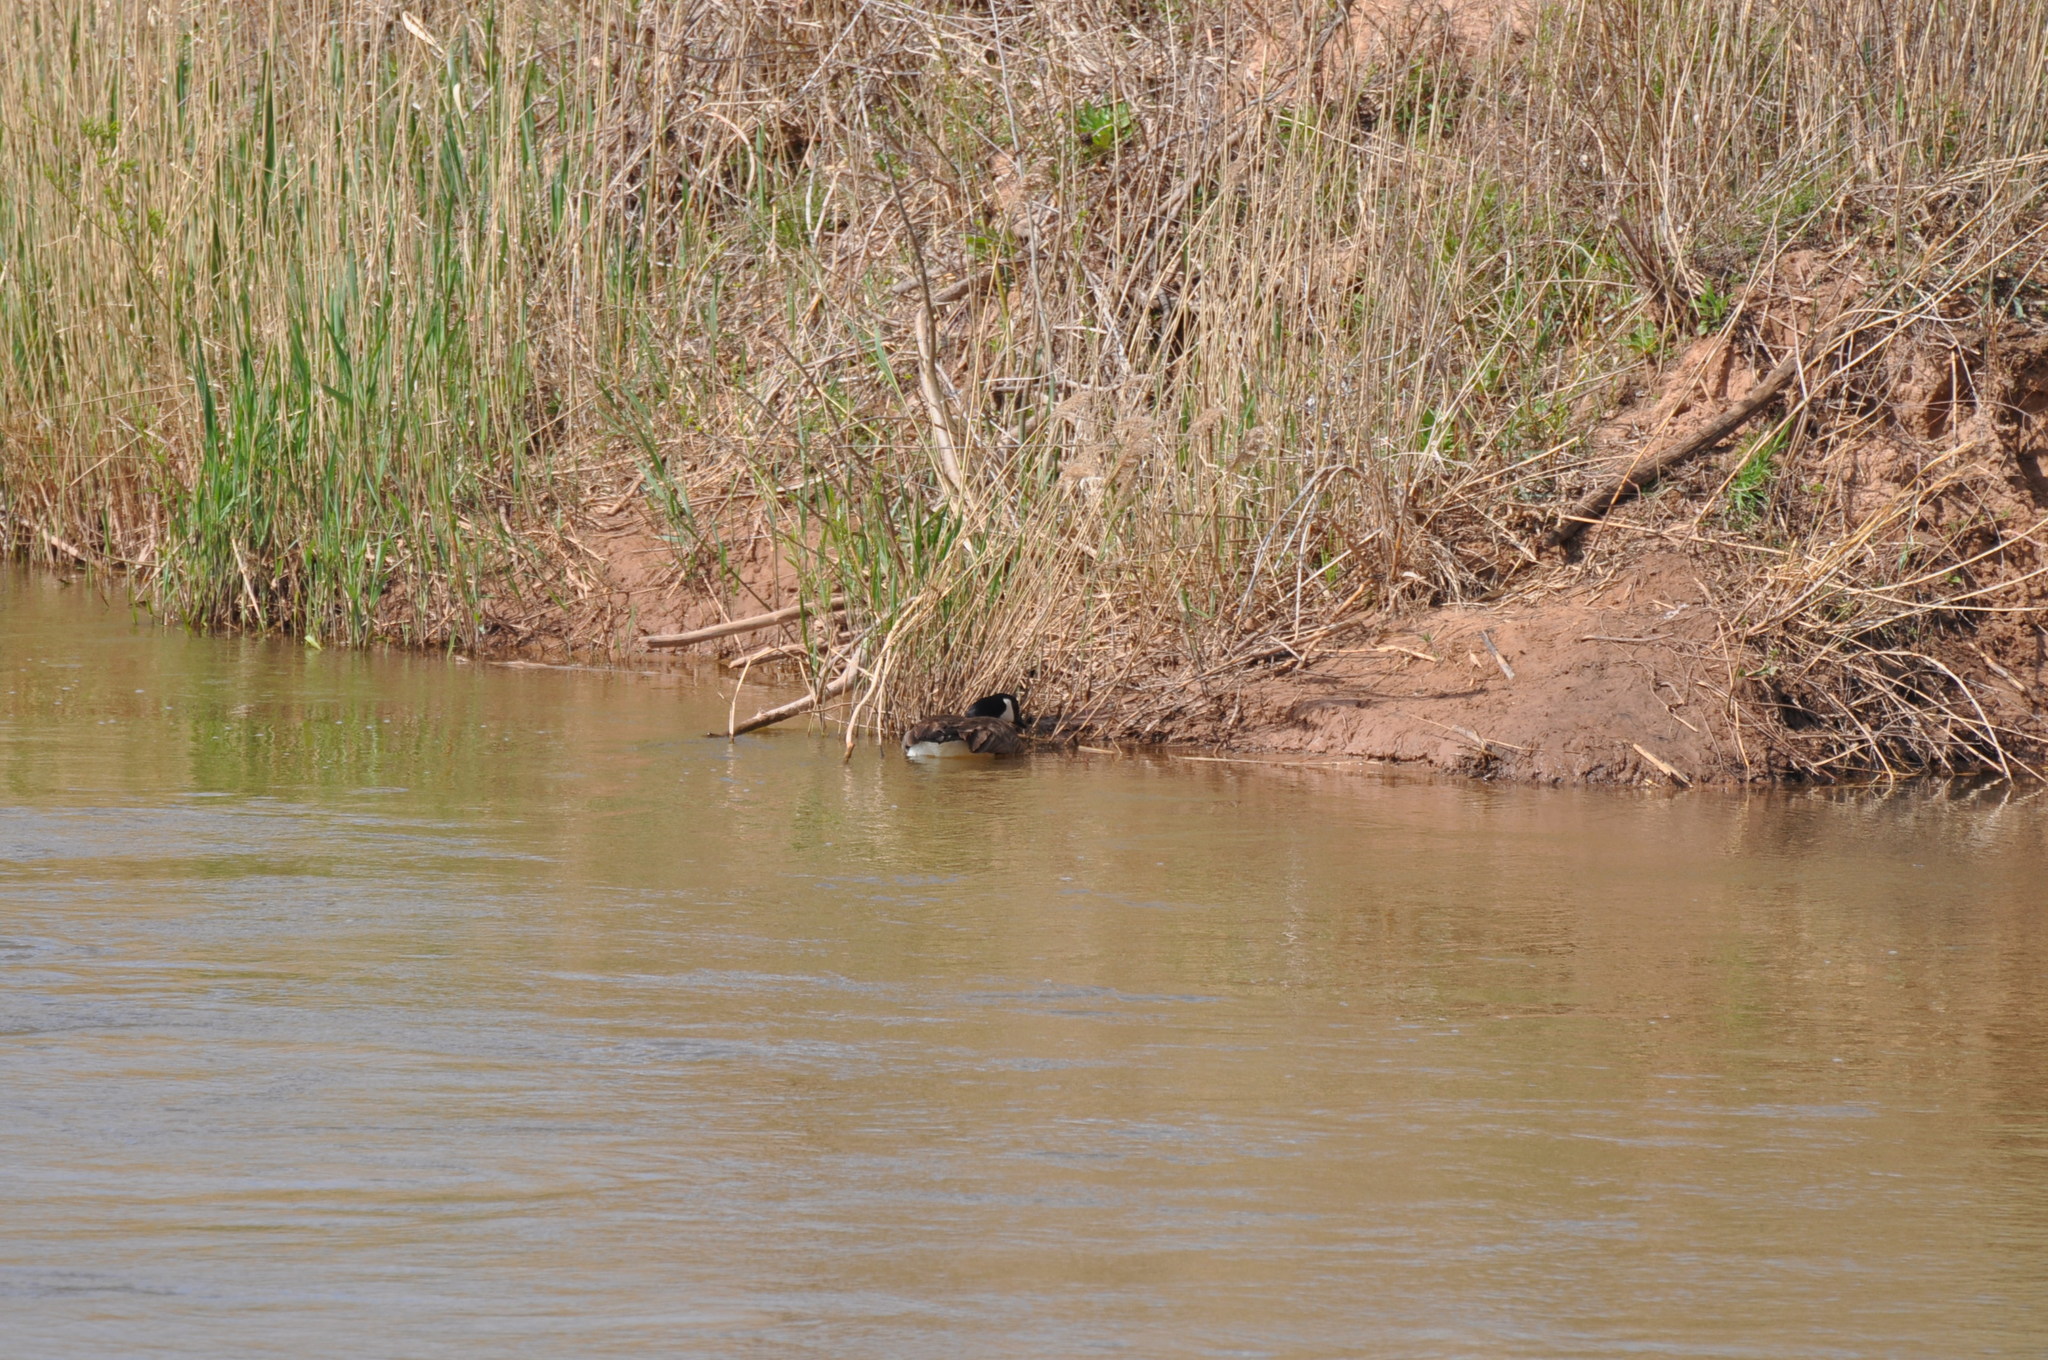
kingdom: Animalia
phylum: Chordata
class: Aves
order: Anseriformes
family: Anatidae
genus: Branta
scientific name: Branta canadensis
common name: Canada goose
